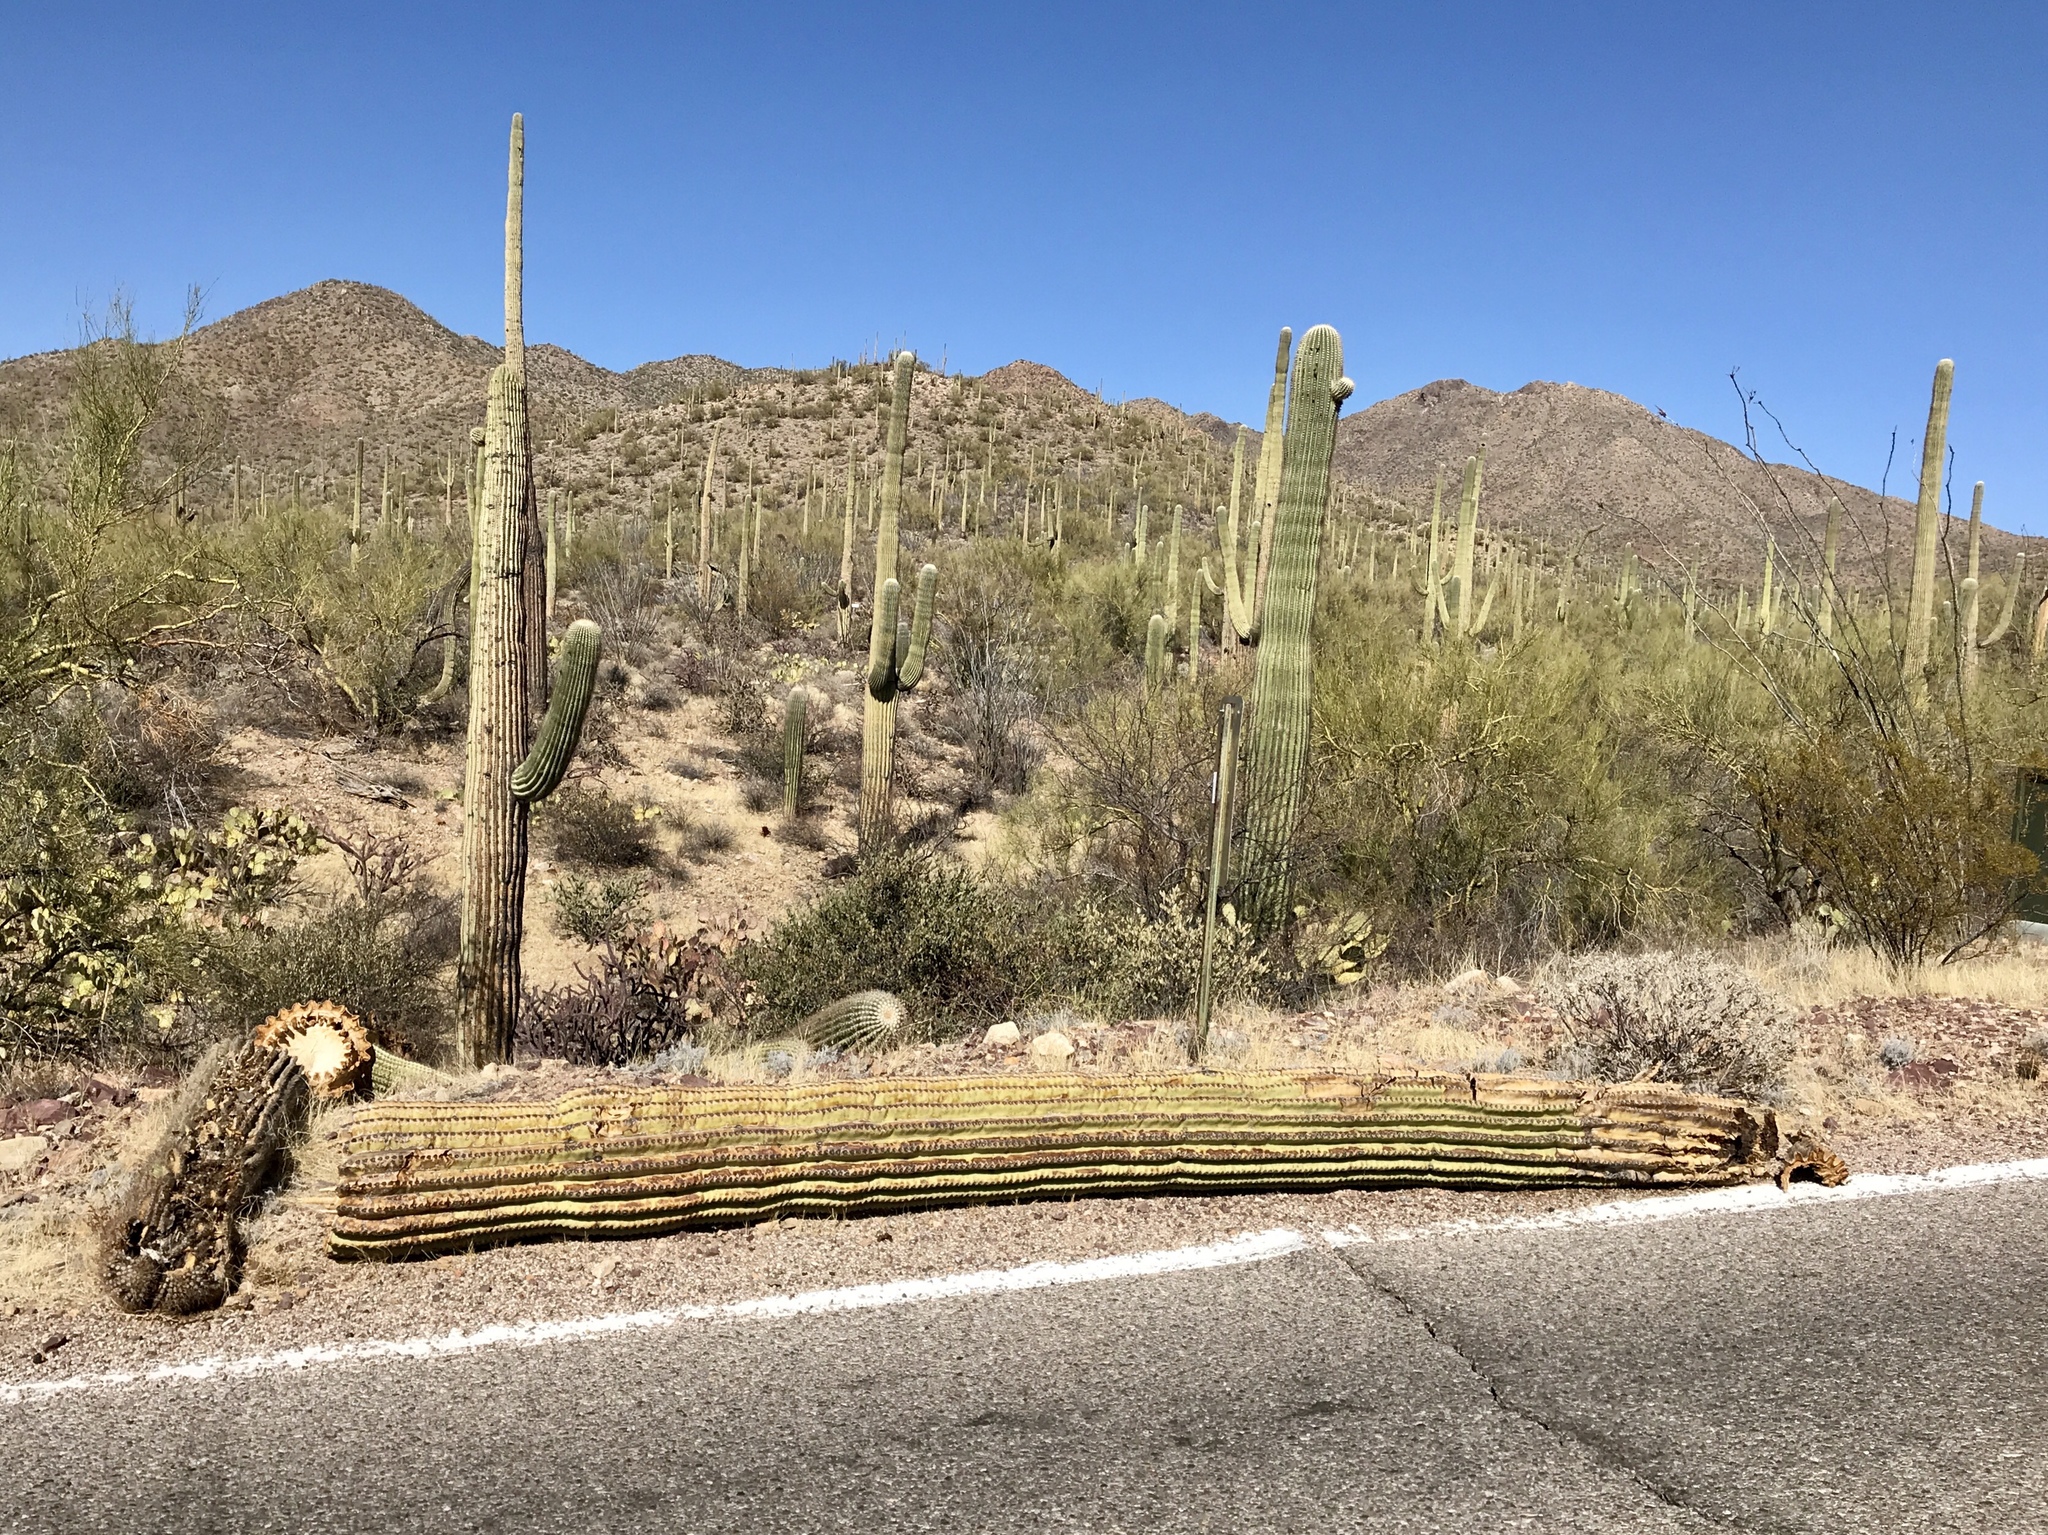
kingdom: Plantae
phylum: Tracheophyta
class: Magnoliopsida
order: Caryophyllales
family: Cactaceae
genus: Carnegiea
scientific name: Carnegiea gigantea
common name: Saguaro
